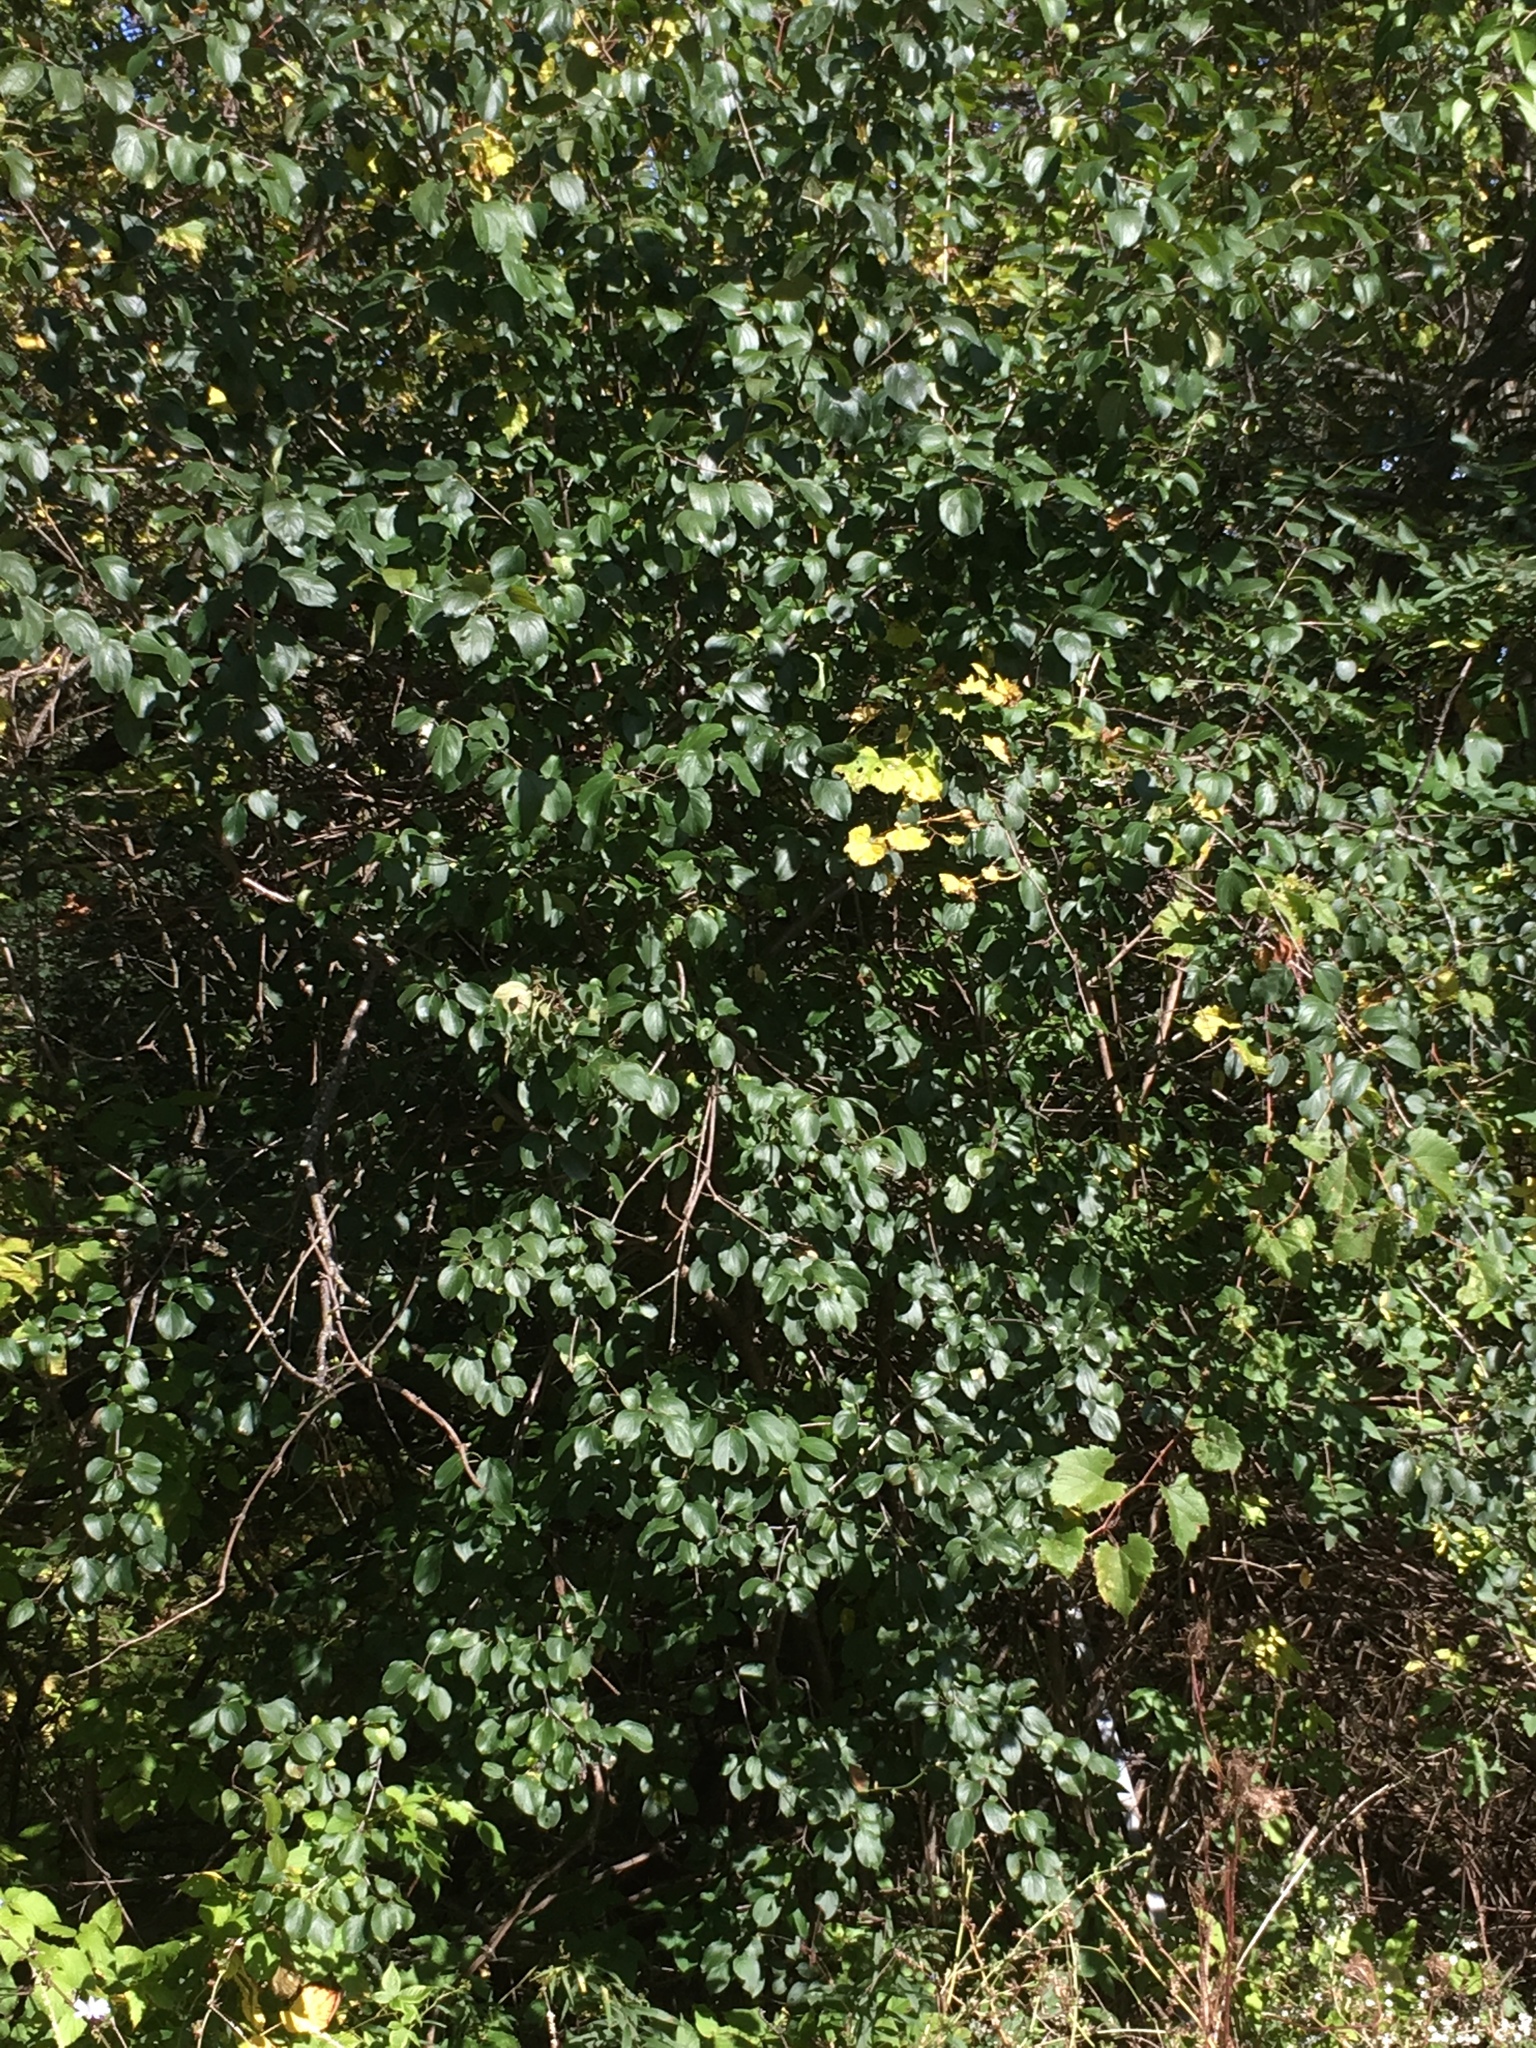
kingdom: Plantae
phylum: Tracheophyta
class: Magnoliopsida
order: Rosales
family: Rhamnaceae
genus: Rhamnus
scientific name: Rhamnus cathartica
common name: Common buckthorn
